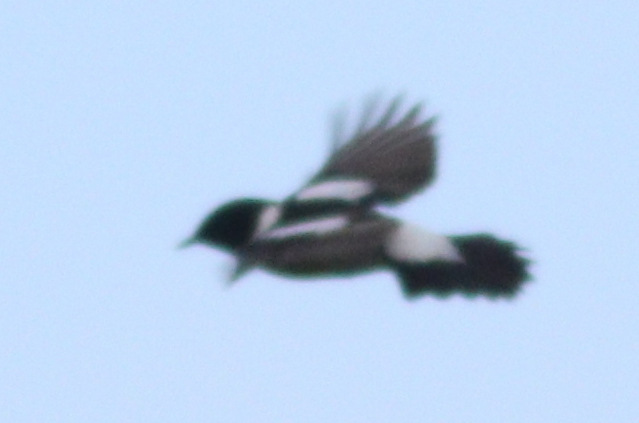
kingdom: Animalia
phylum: Chordata
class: Aves
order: Passeriformes
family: Muscicapidae
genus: Saxicola
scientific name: Saxicola maurus
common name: Siberian stonechat
